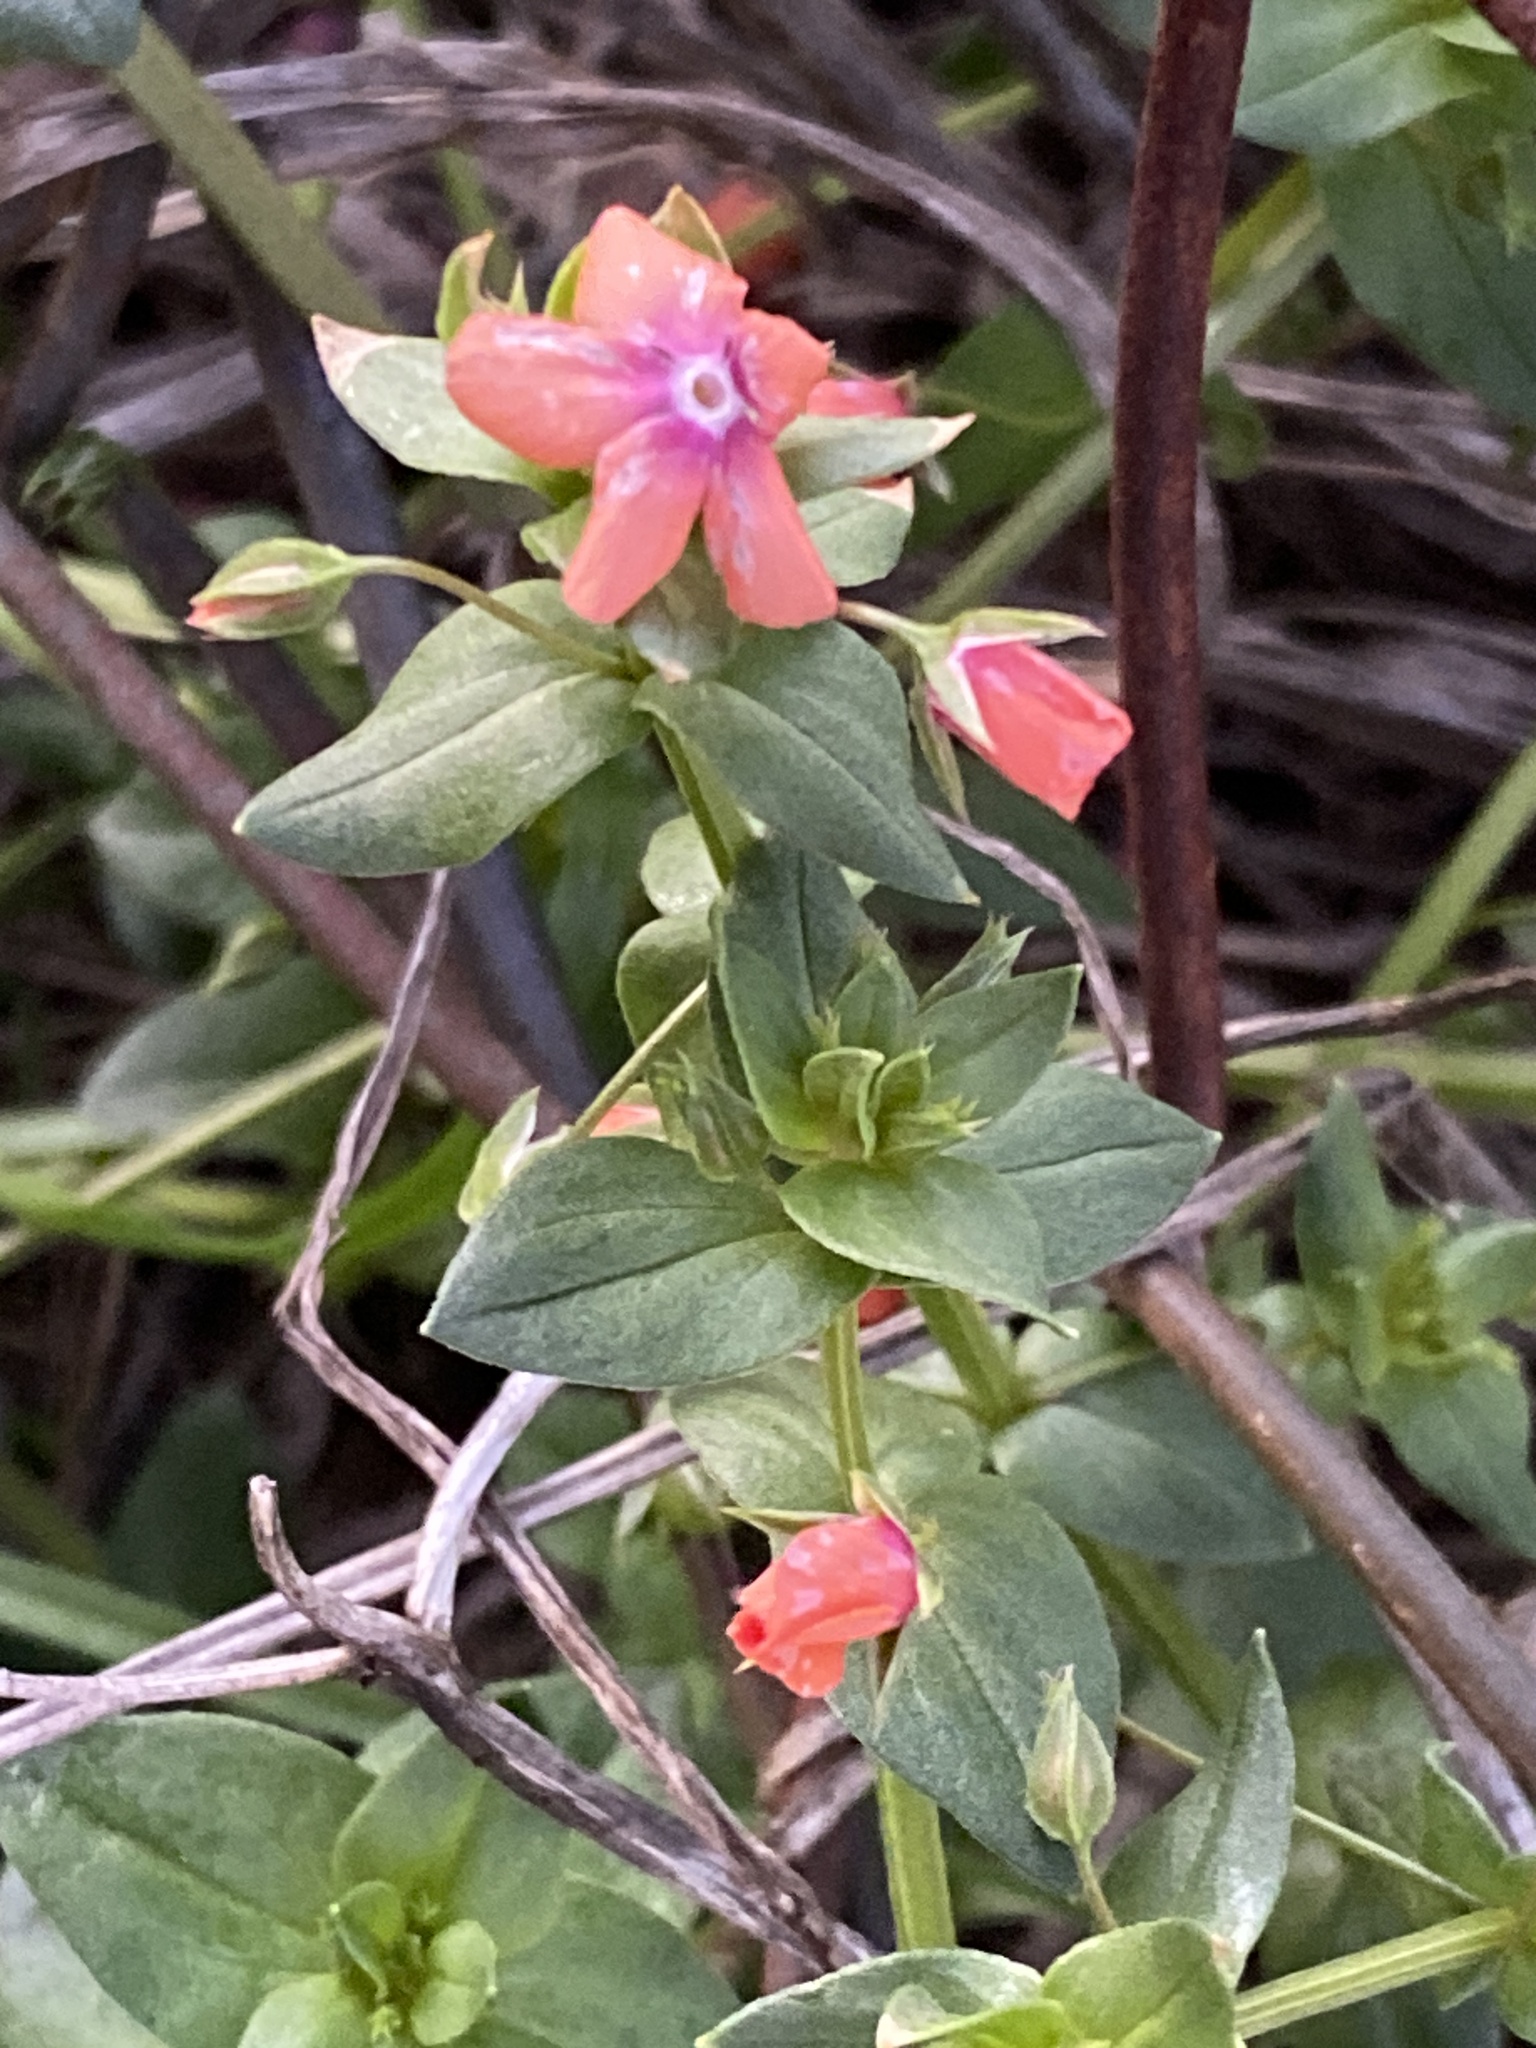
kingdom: Plantae
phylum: Tracheophyta
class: Magnoliopsida
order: Ericales
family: Primulaceae
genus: Lysimachia
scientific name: Lysimachia arvensis
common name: Scarlet pimpernel
